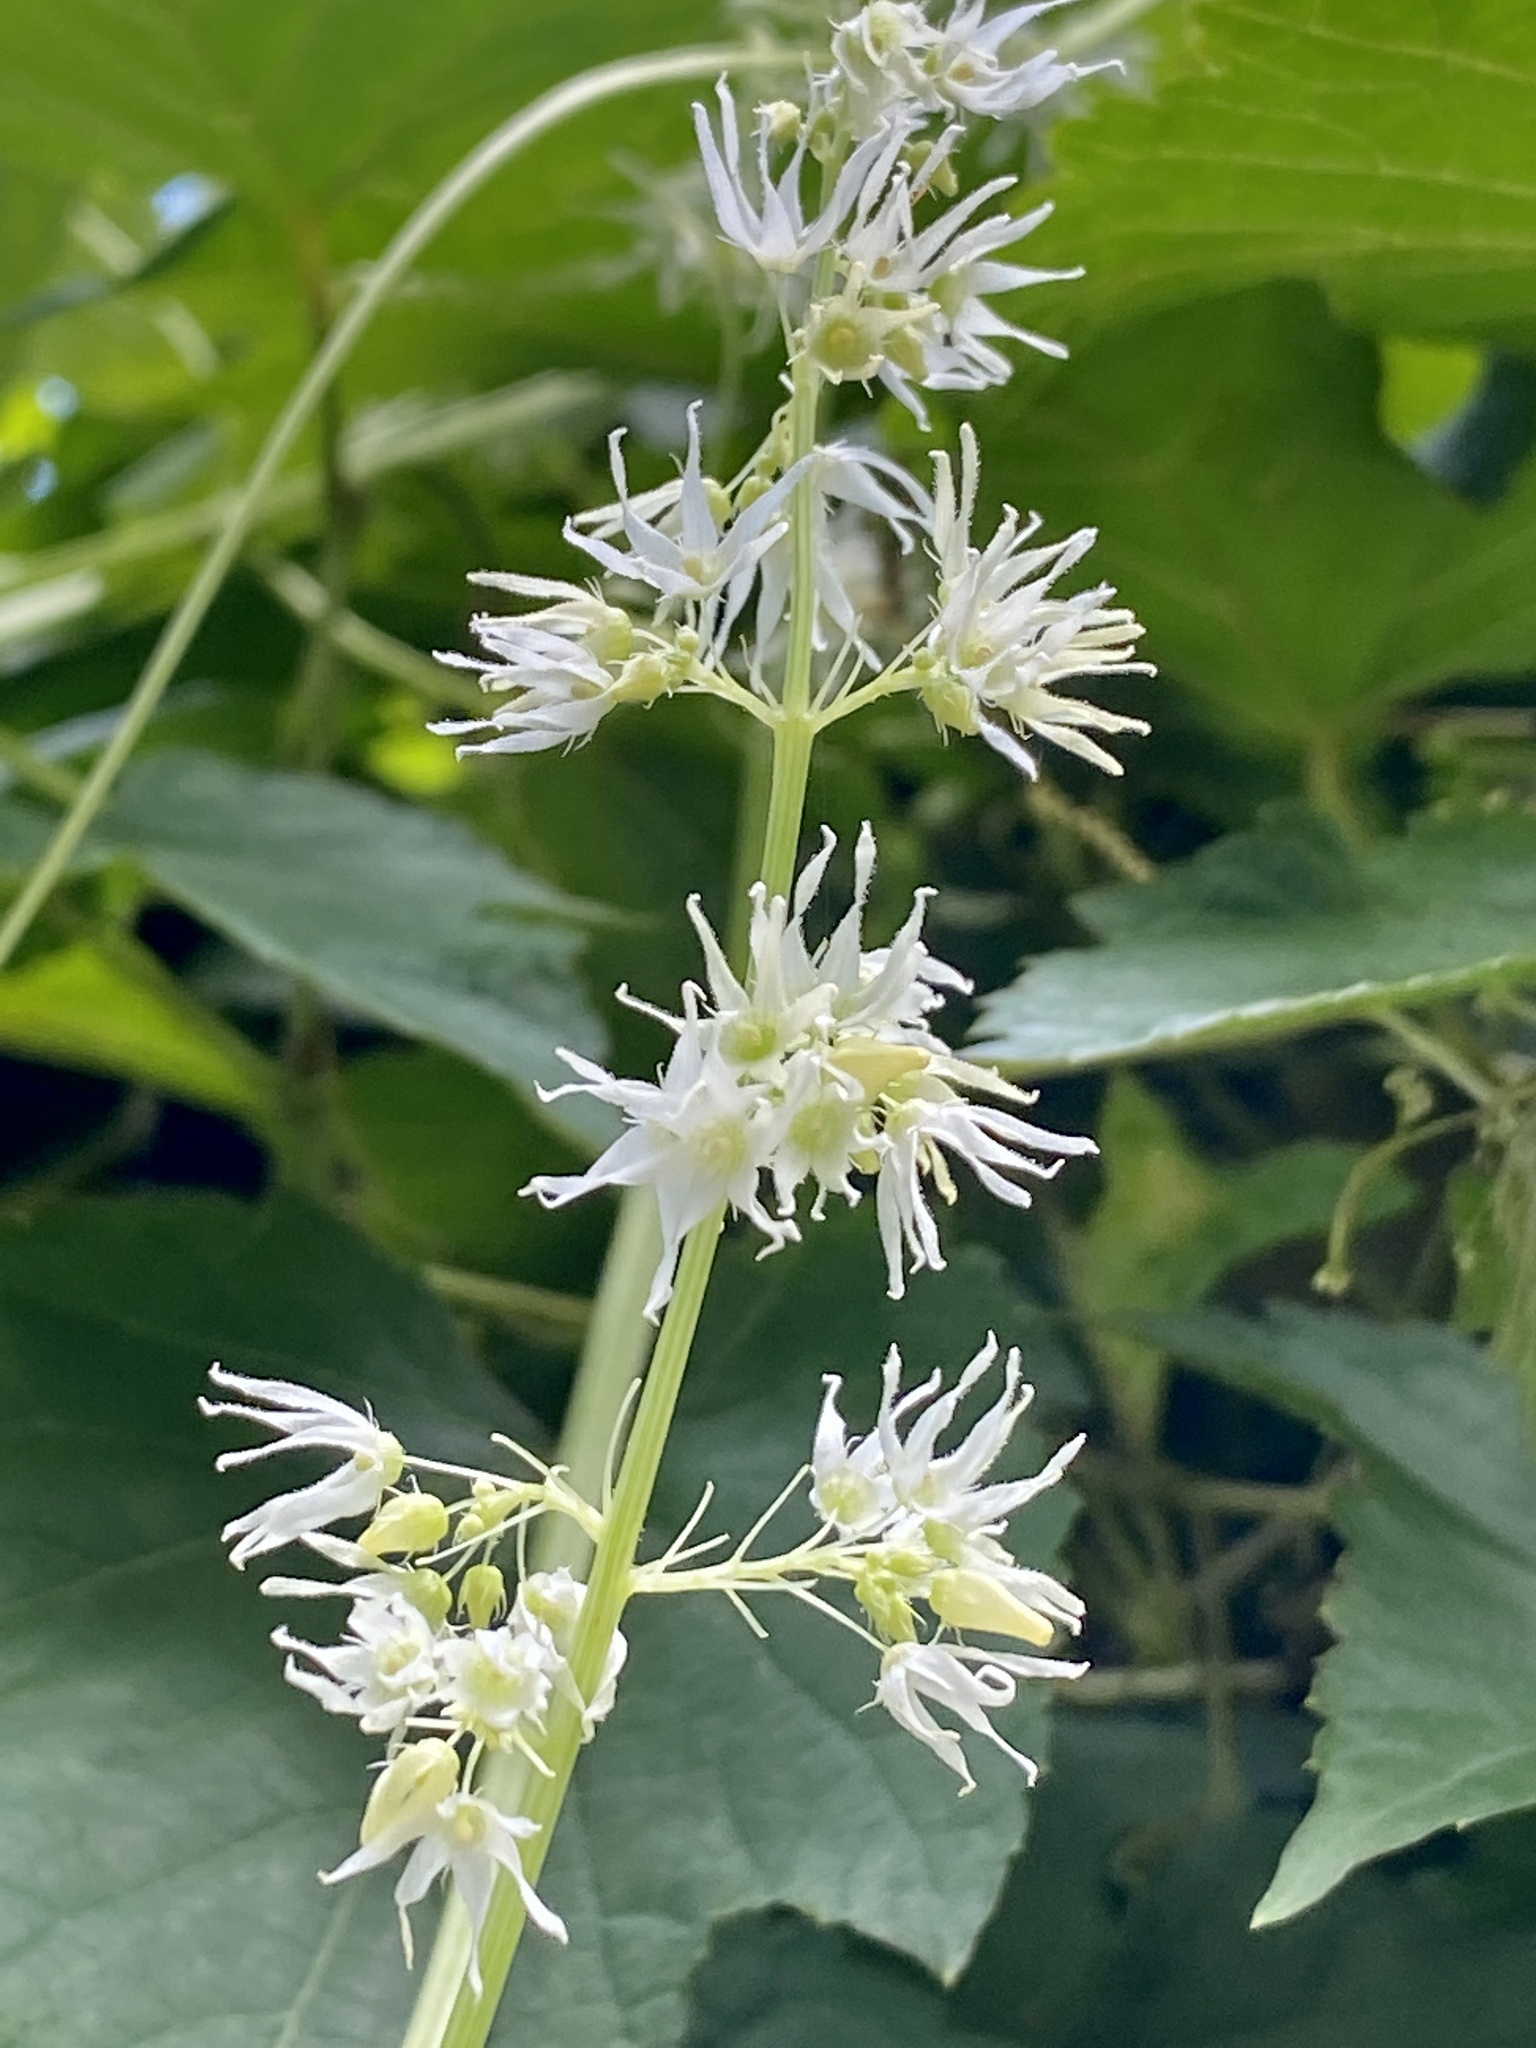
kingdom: Plantae
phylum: Tracheophyta
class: Magnoliopsida
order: Cucurbitales
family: Cucurbitaceae
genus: Echinocystis
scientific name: Echinocystis lobata
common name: Wild cucumber
